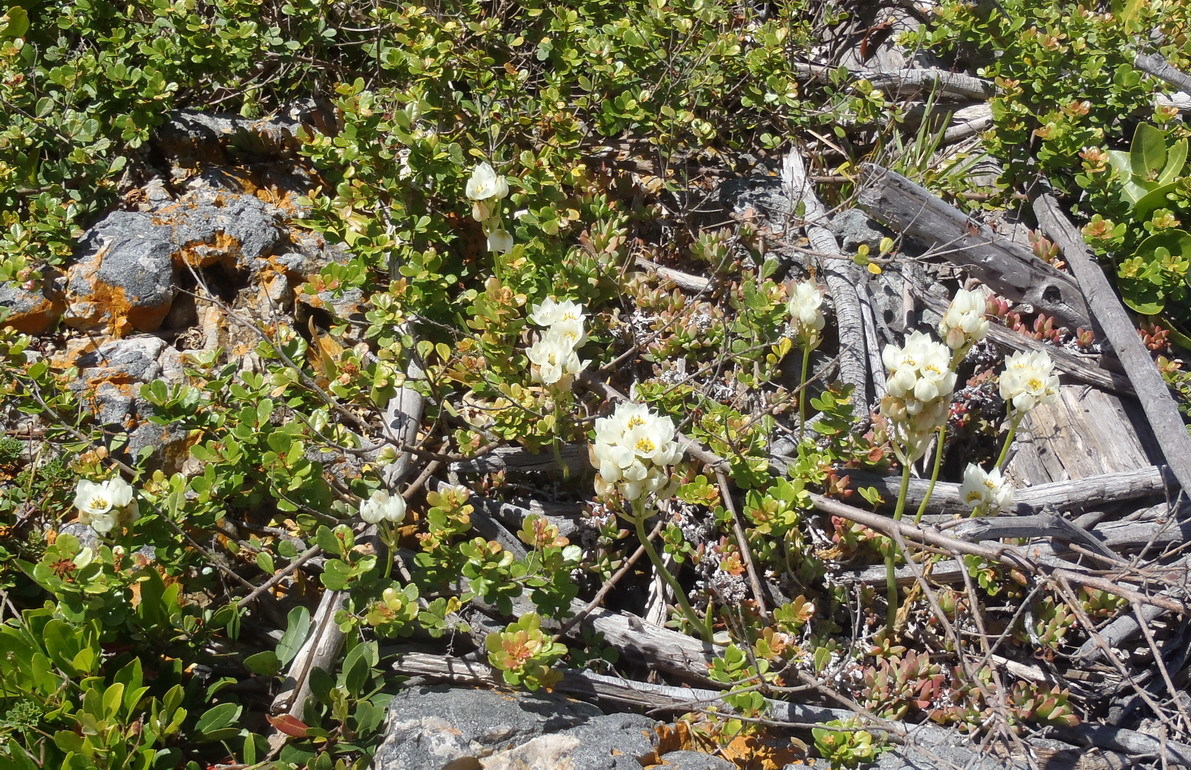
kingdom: Plantae
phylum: Tracheophyta
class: Liliopsida
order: Asparagales
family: Asparagaceae
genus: Ornithogalum
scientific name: Ornithogalum dubium
